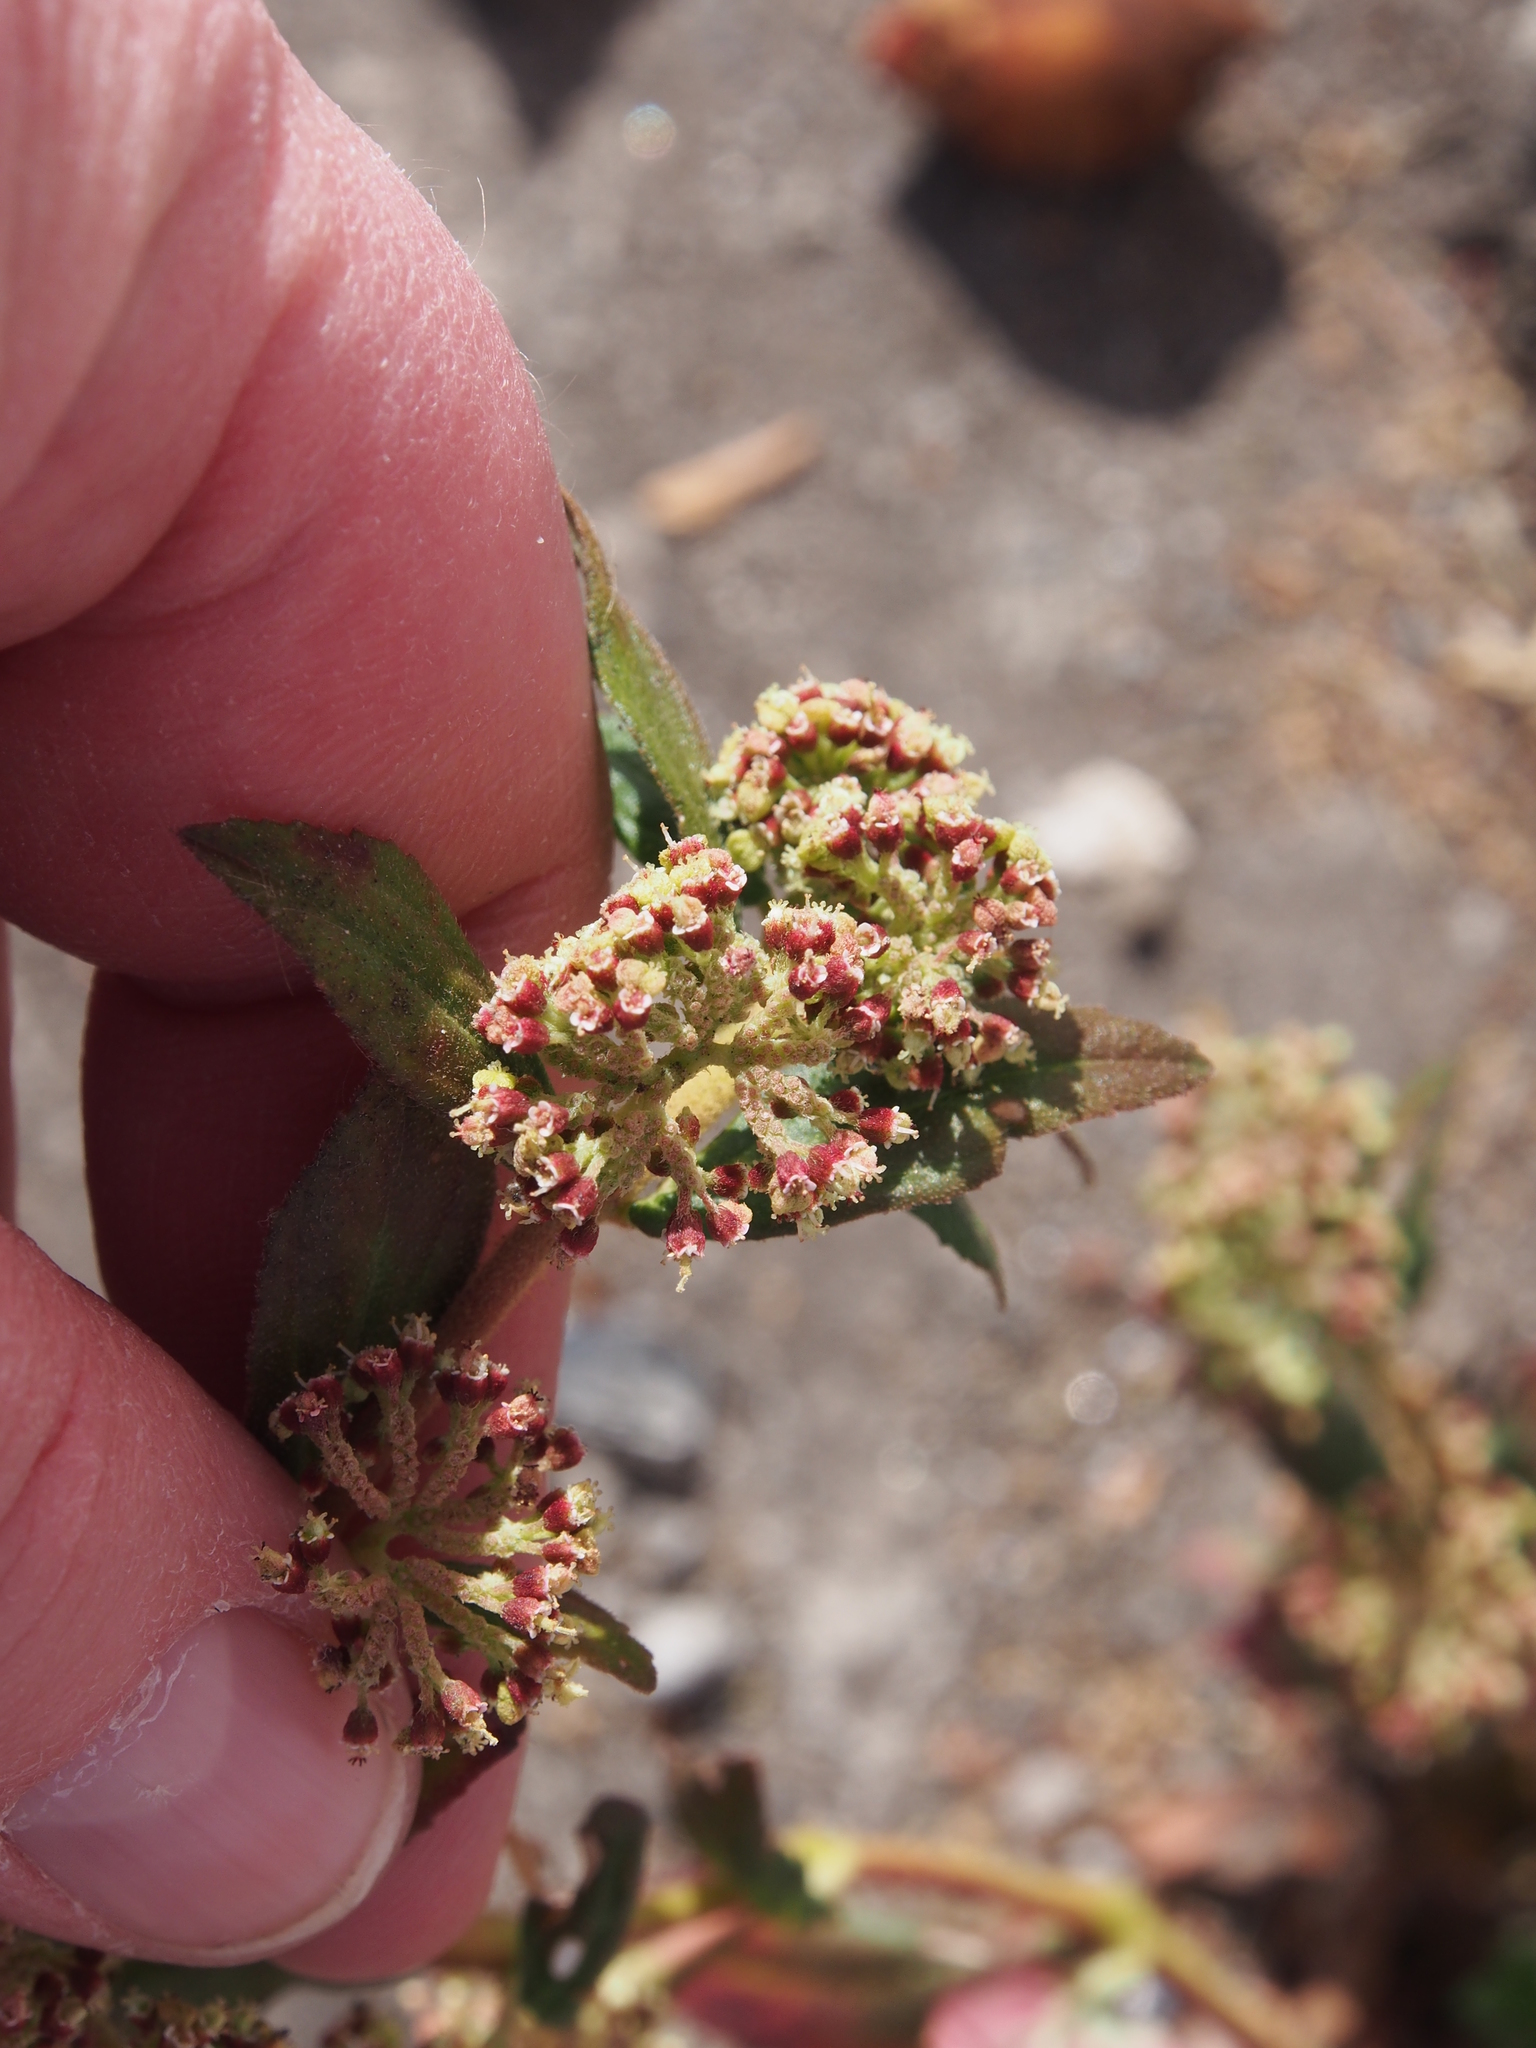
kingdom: Plantae
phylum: Tracheophyta
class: Magnoliopsida
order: Malpighiales
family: Euphorbiaceae
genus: Euphorbia
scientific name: Euphorbia hirta
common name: Pillpod sandmat
